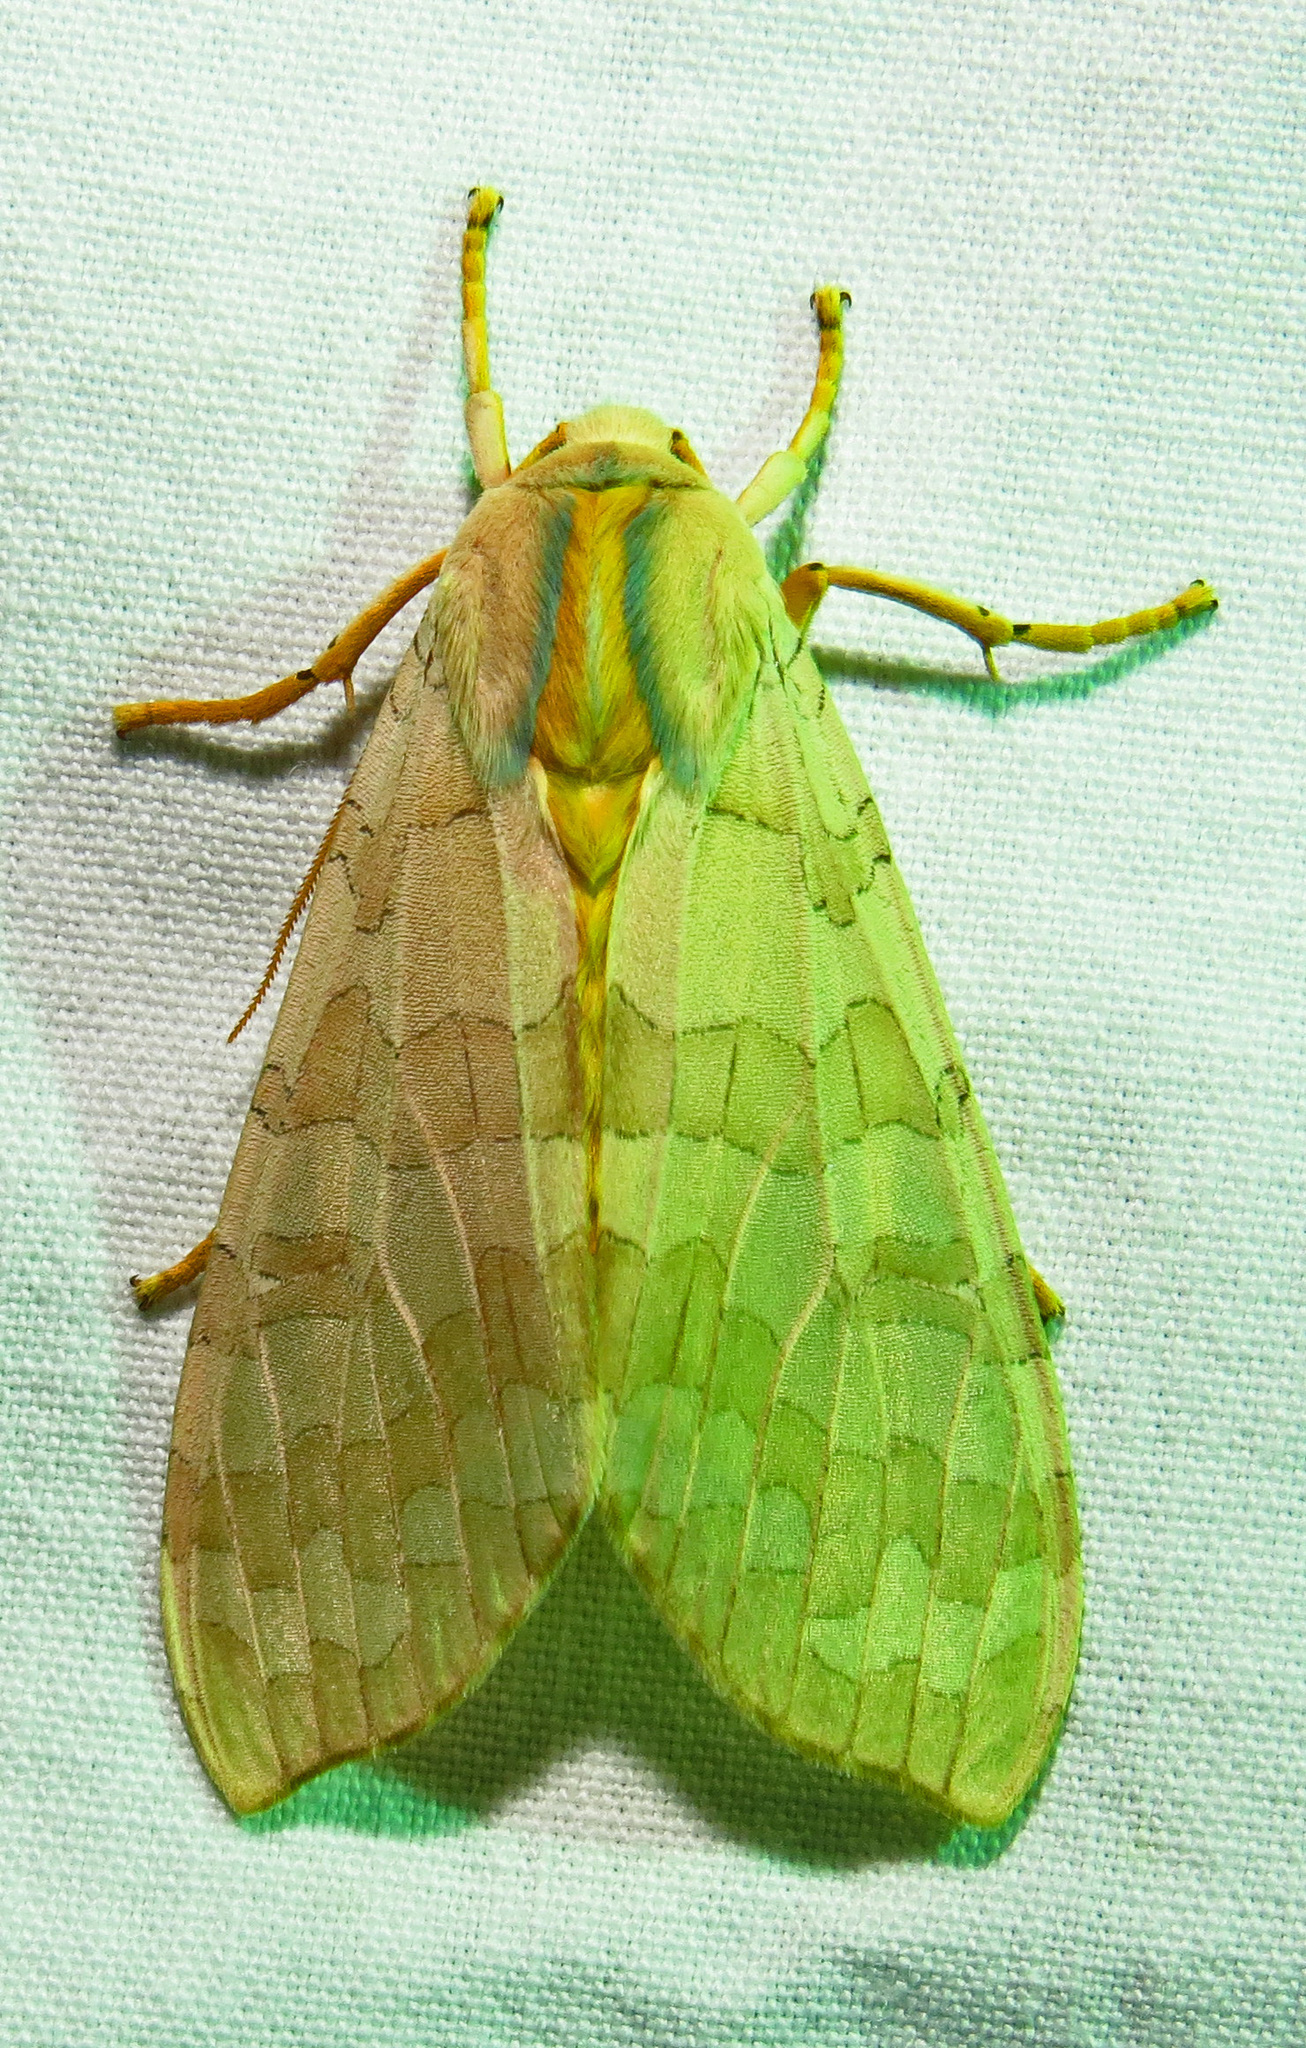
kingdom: Animalia
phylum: Arthropoda
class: Insecta
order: Lepidoptera
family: Erebidae
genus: Halysidota
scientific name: Halysidota
